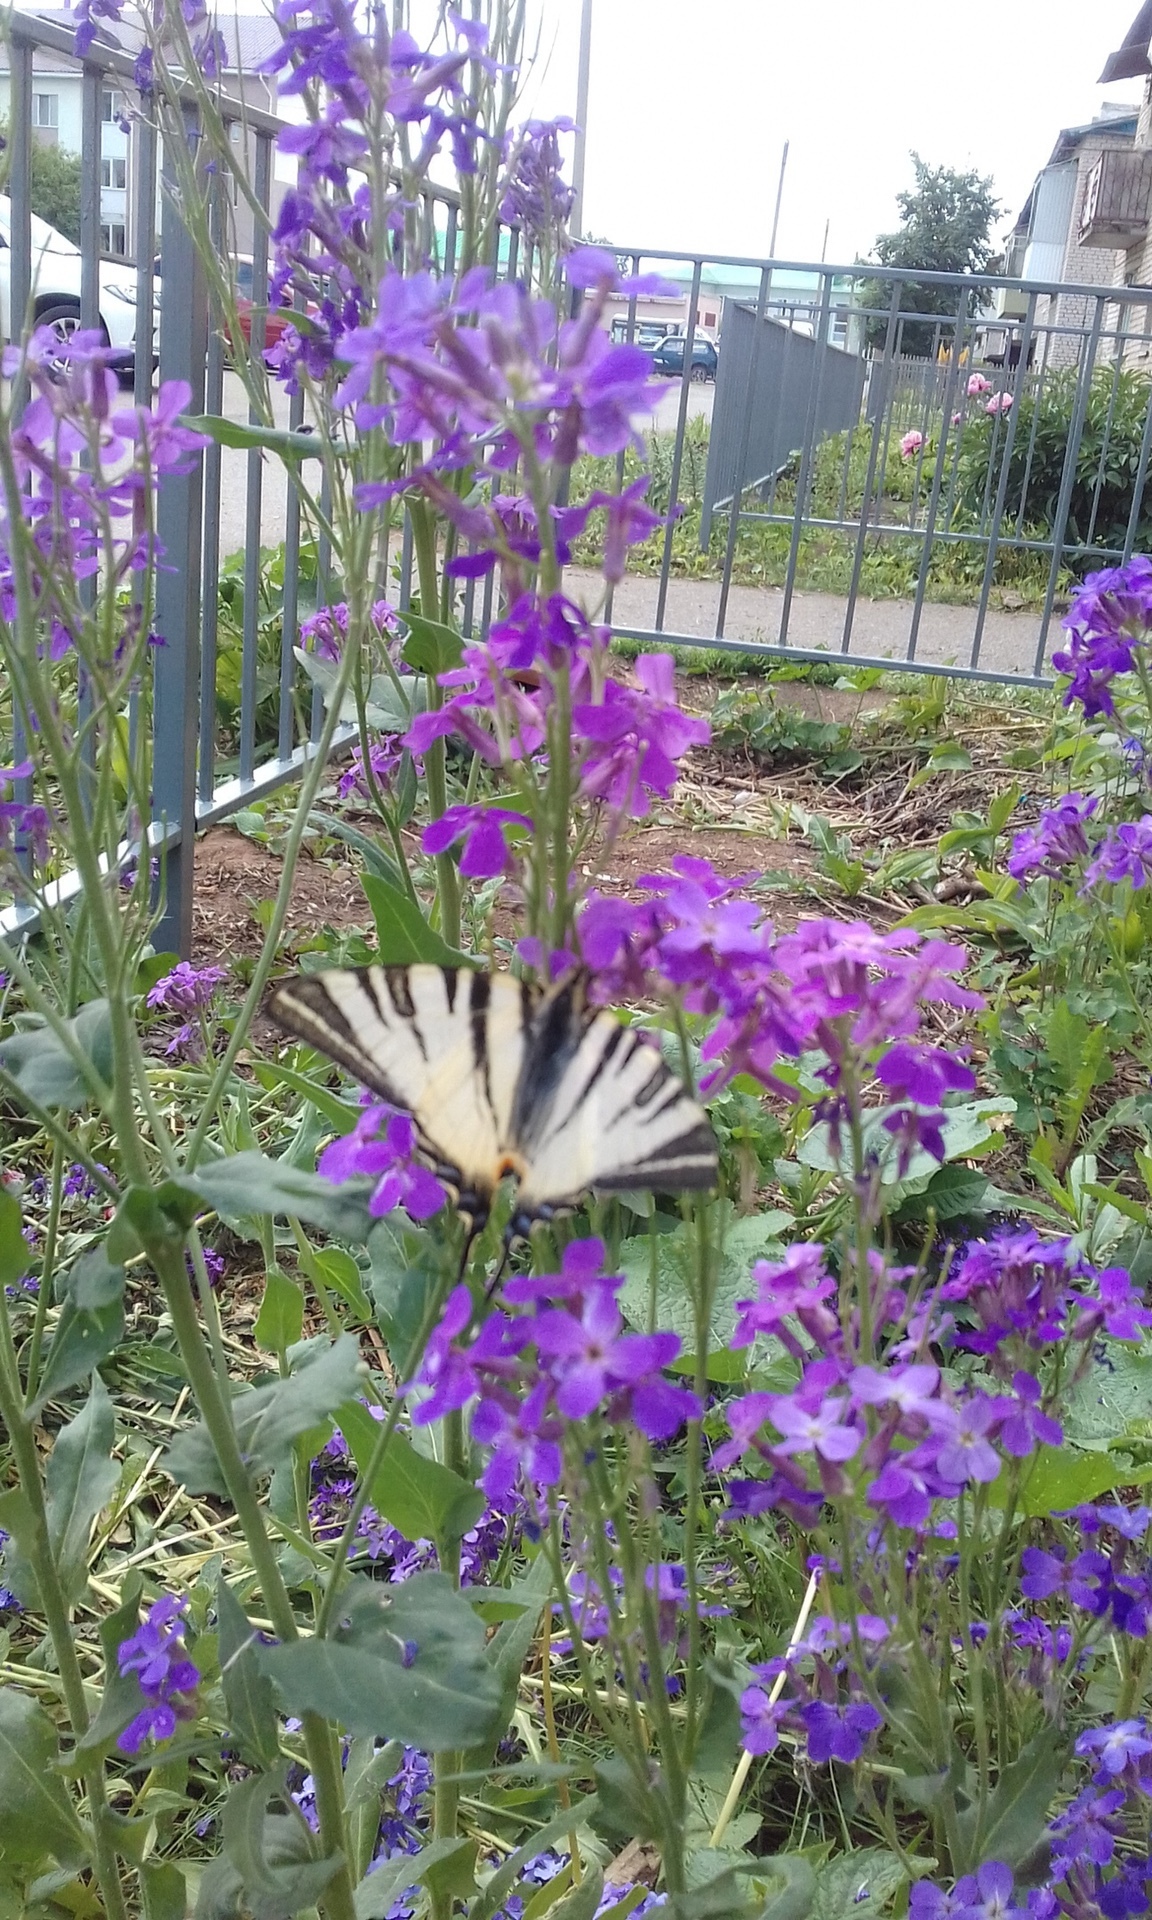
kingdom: Animalia
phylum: Arthropoda
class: Insecta
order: Lepidoptera
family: Papilionidae
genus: Iphiclides
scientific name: Iphiclides podalirius
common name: Scarce swallowtail
